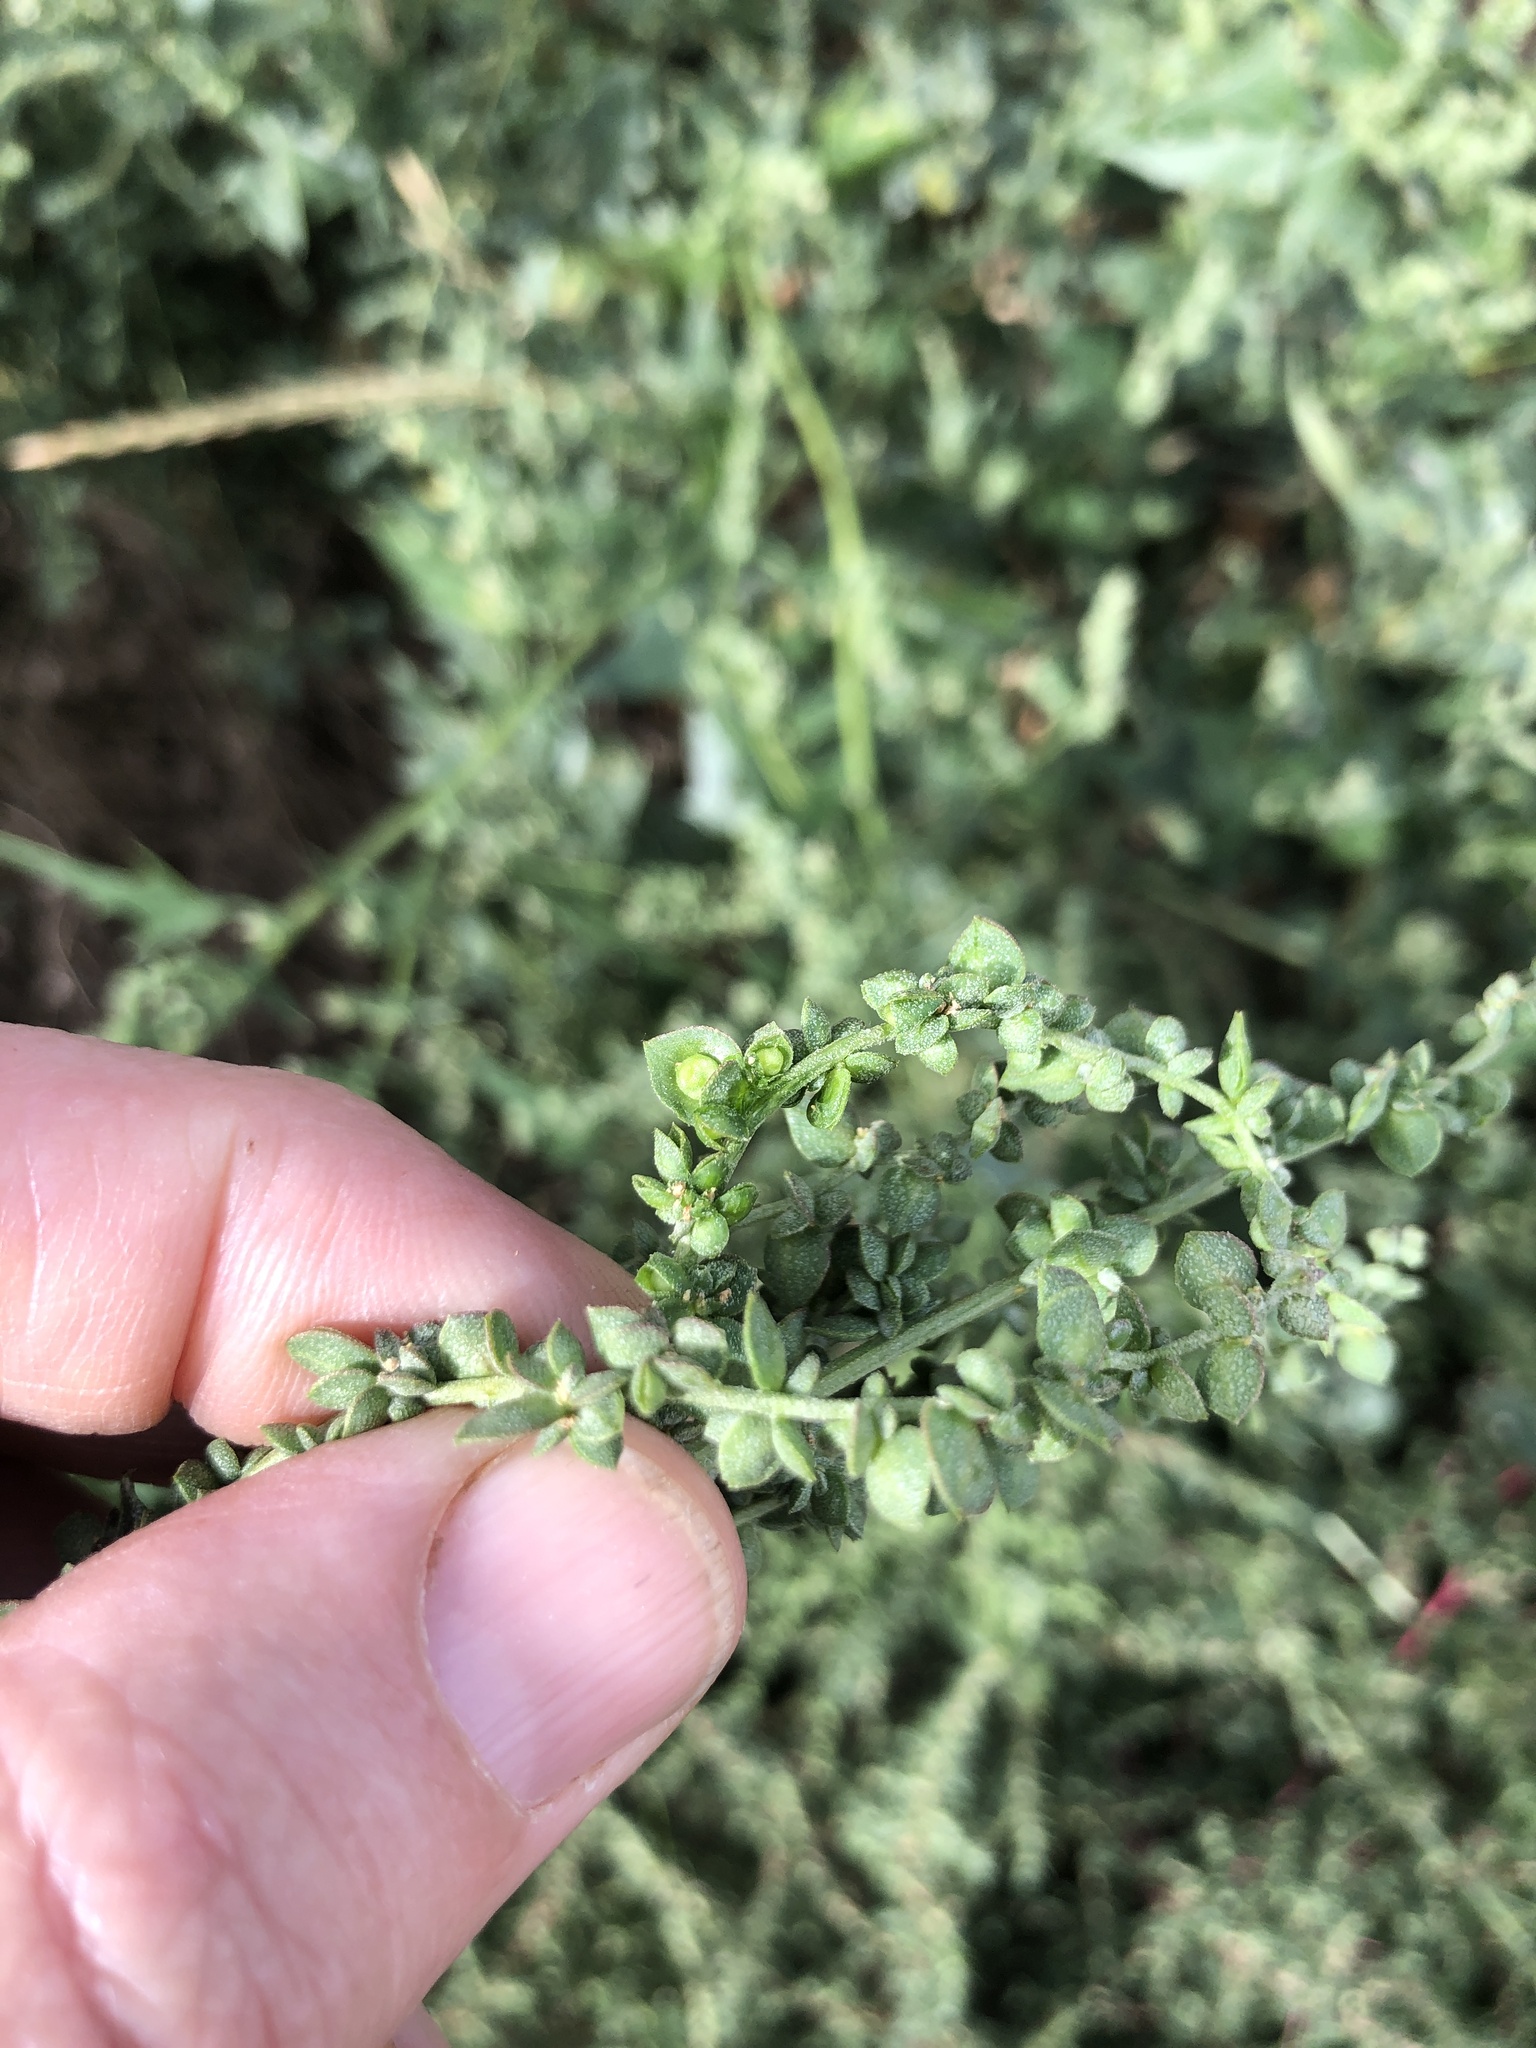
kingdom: Plantae
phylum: Tracheophyta
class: Magnoliopsida
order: Caryophyllales
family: Amaranthaceae
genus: Atriplex
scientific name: Atriplex micrantha
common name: Twoscale saltbush
